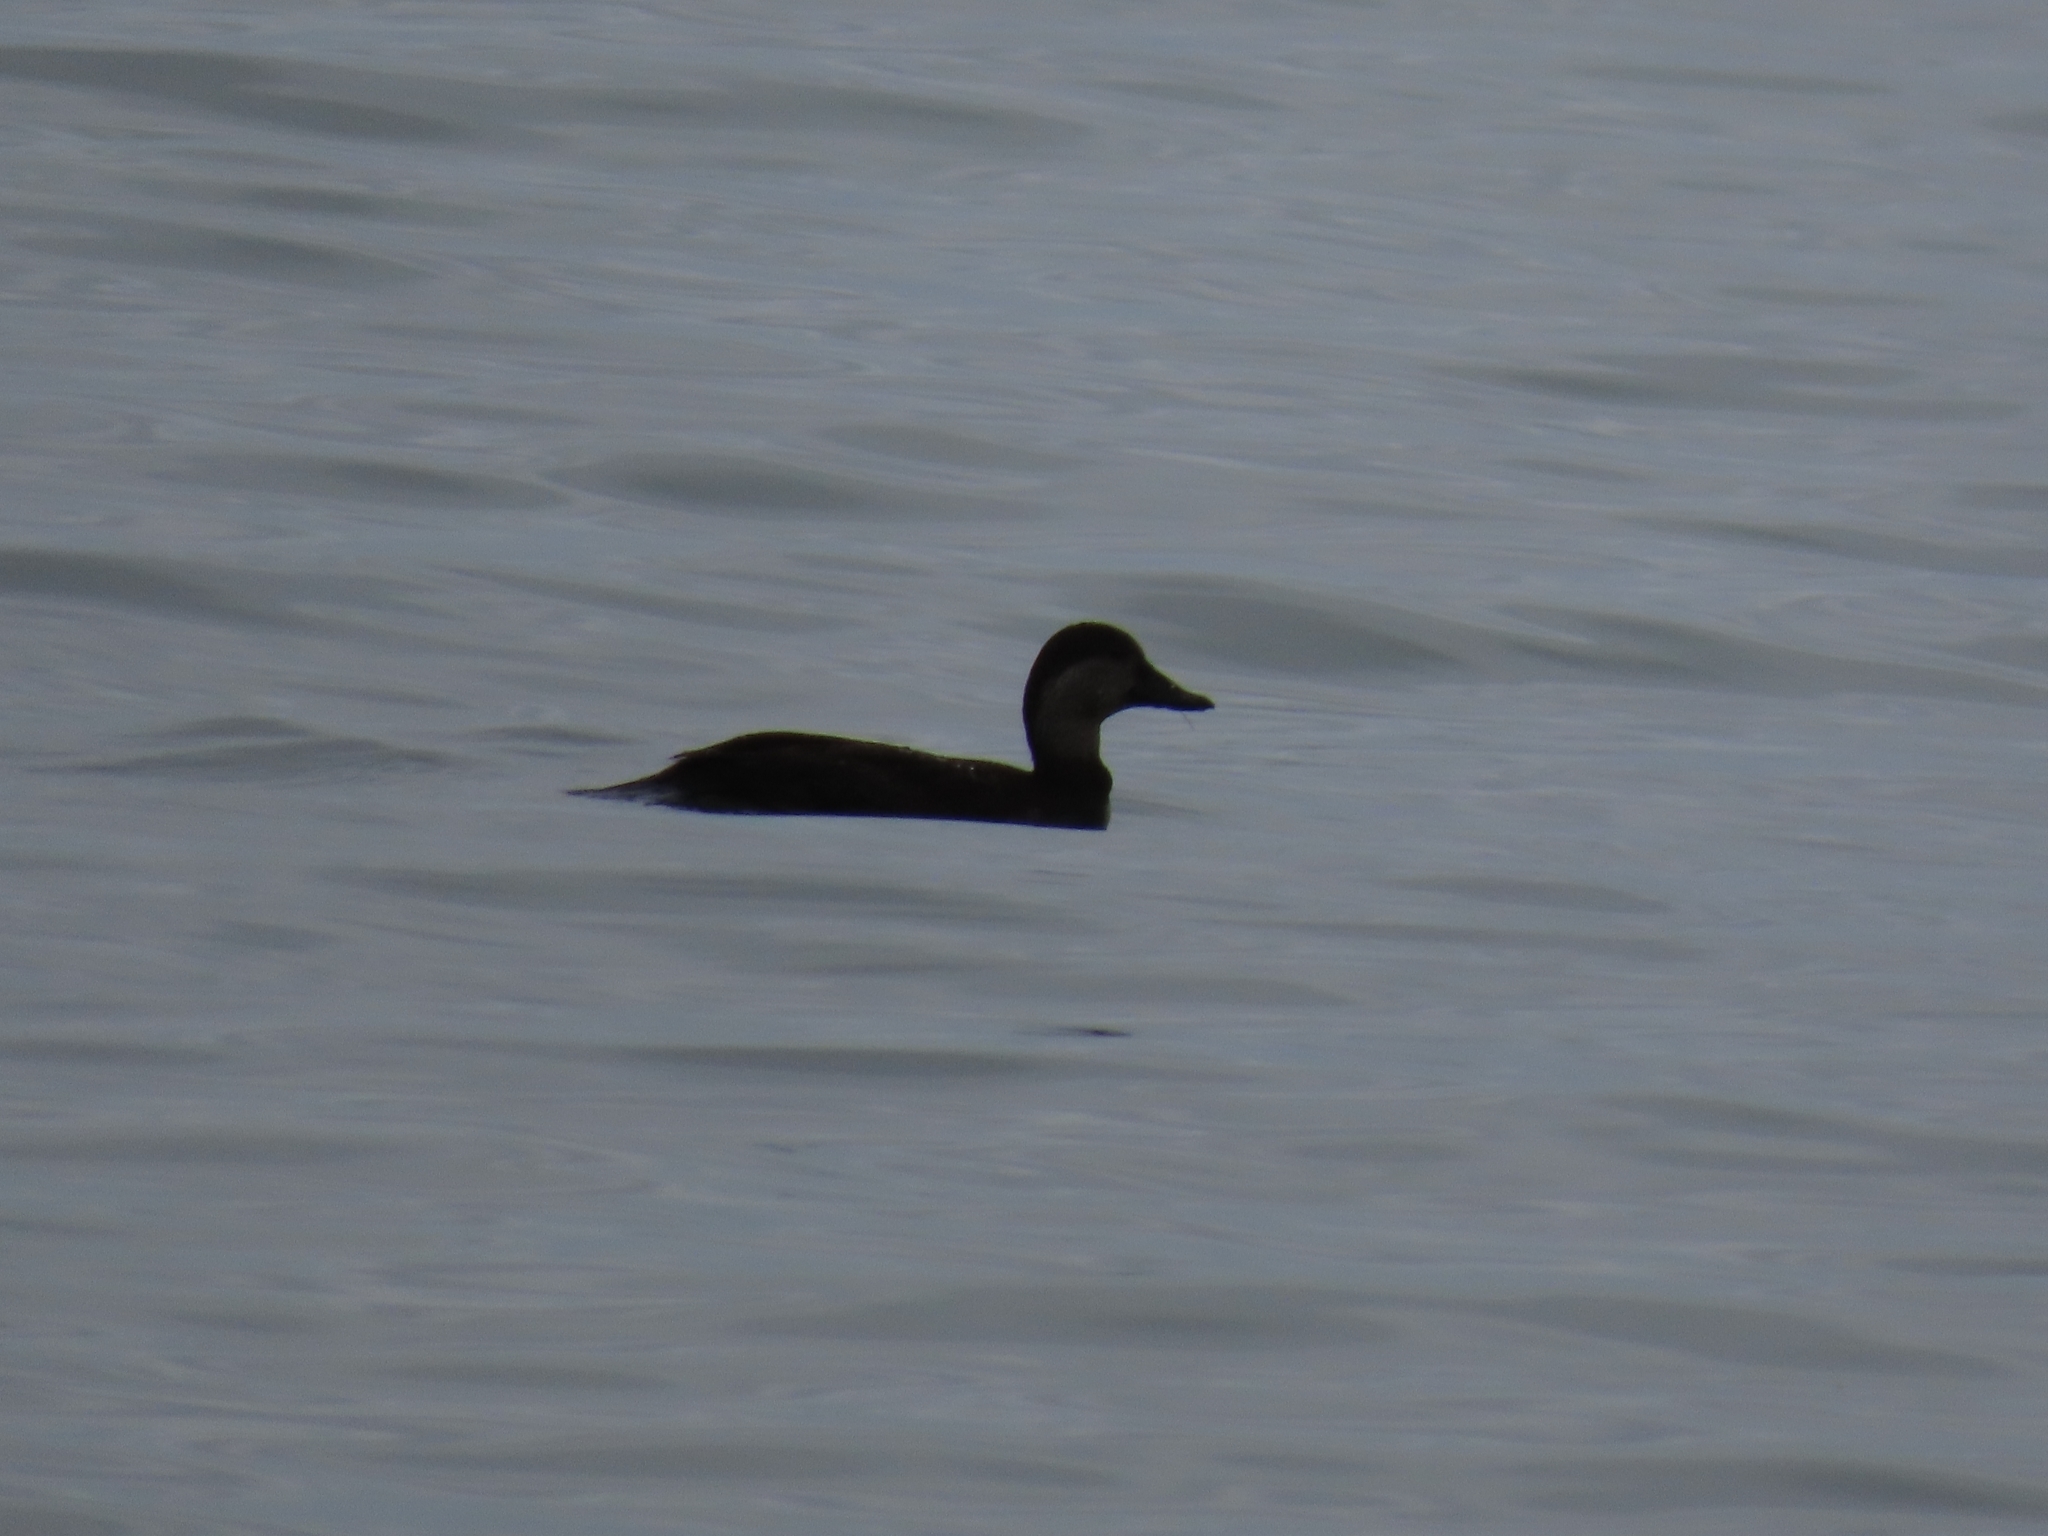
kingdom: Animalia
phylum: Chordata
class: Aves
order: Anseriformes
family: Anatidae
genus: Melanitta
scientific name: Melanitta americana
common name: Black scoter
